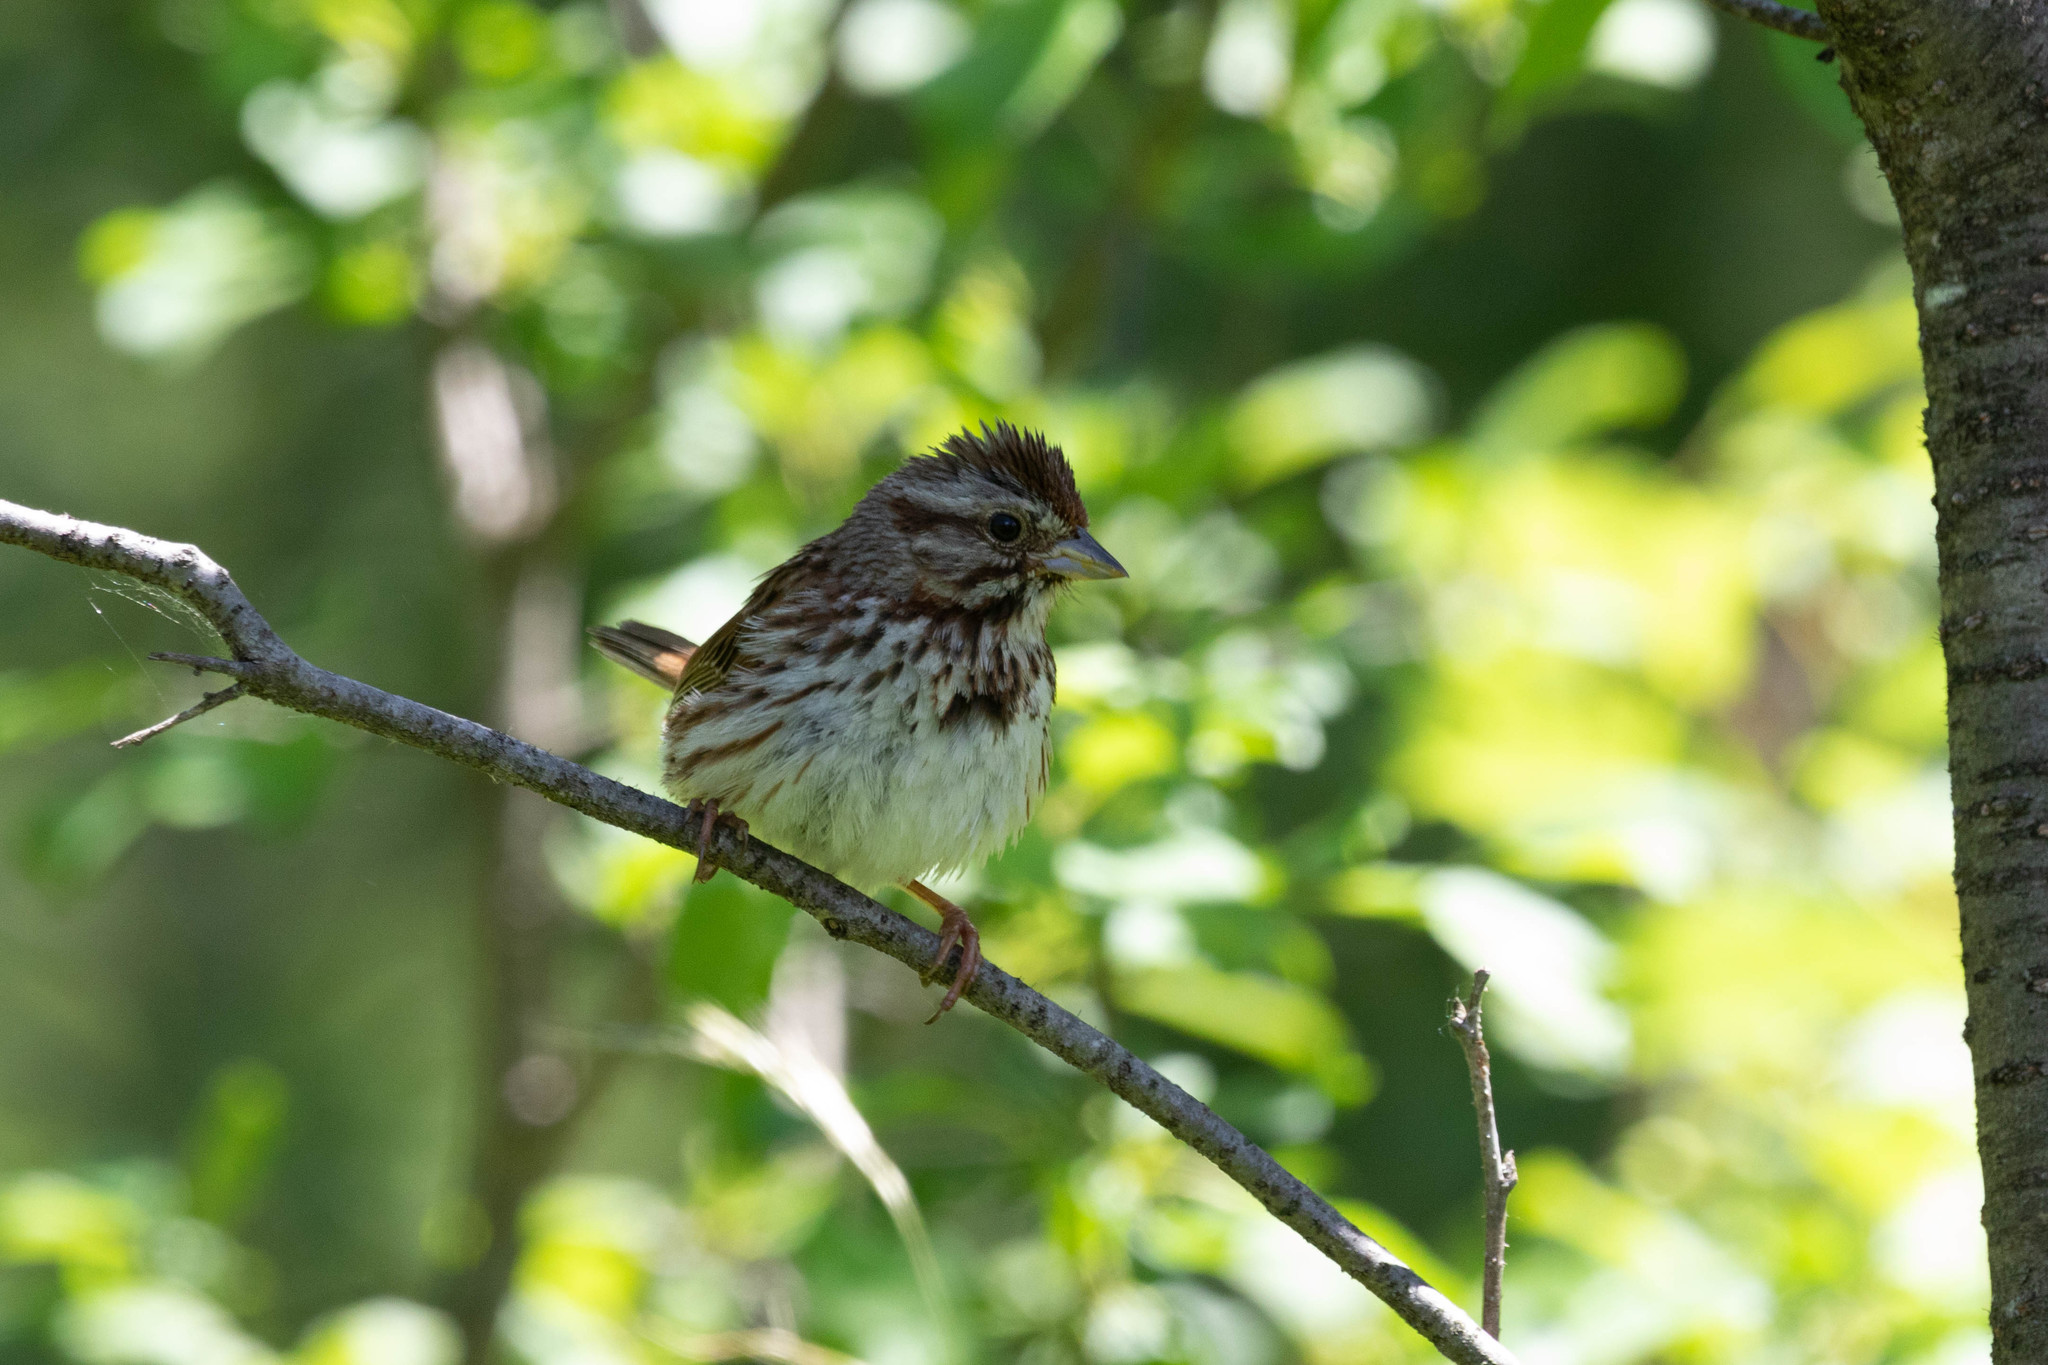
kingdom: Animalia
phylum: Chordata
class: Aves
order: Passeriformes
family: Passerellidae
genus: Melospiza
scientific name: Melospiza melodia
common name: Song sparrow
